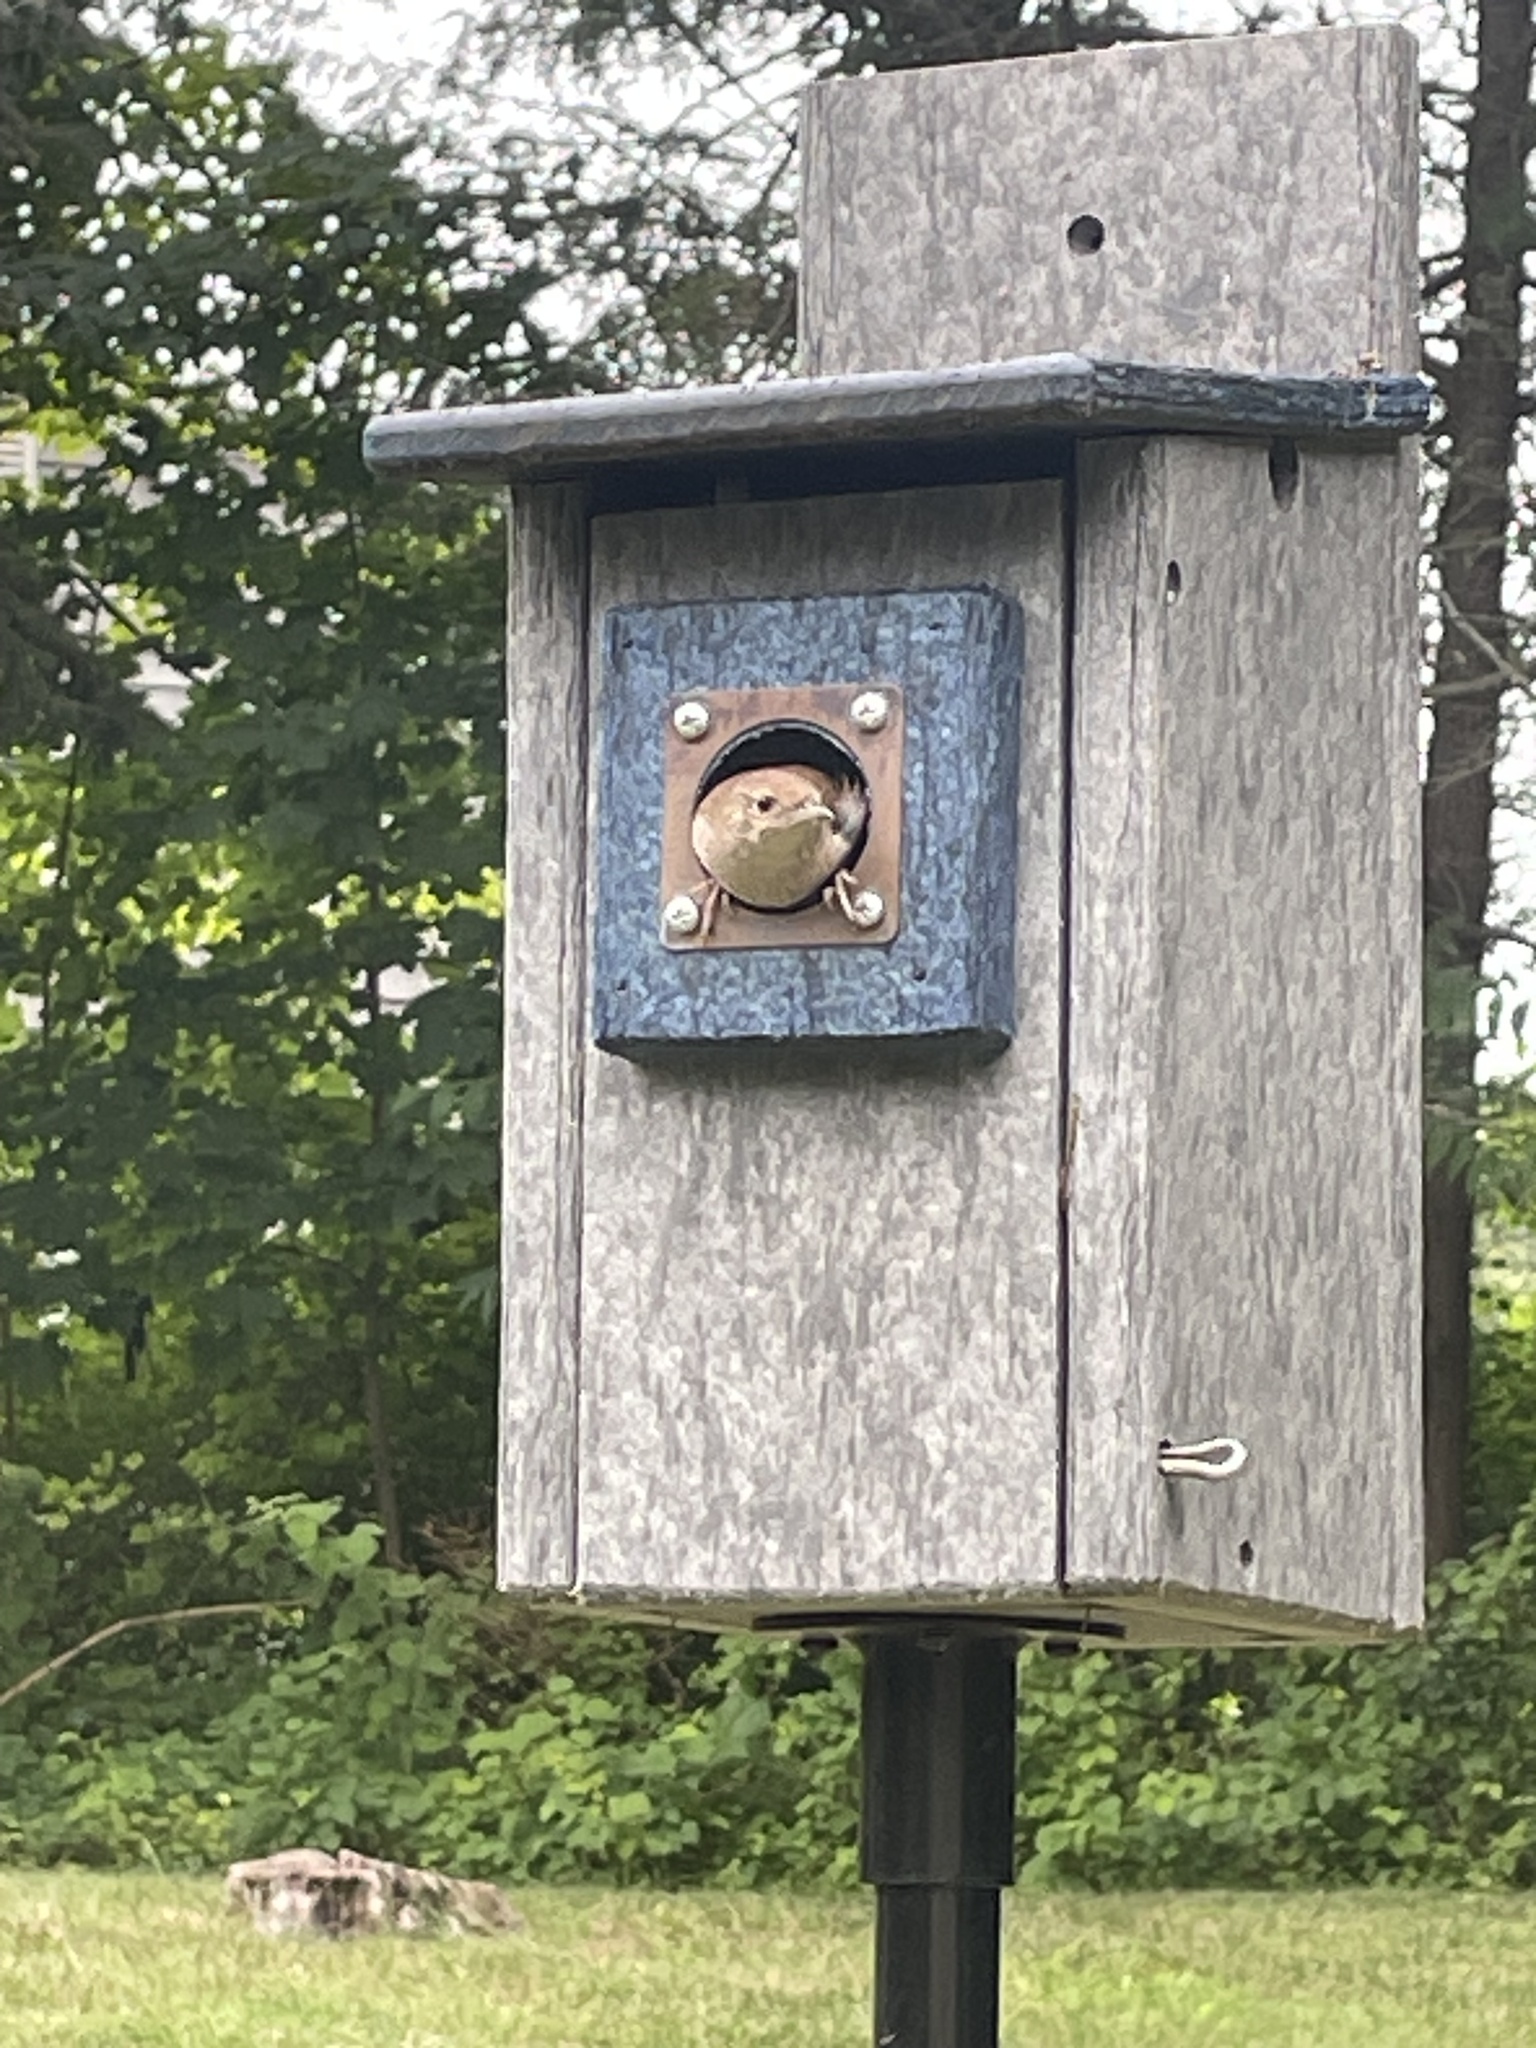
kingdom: Animalia
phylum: Chordata
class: Aves
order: Passeriformes
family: Troglodytidae
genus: Troglodytes
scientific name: Troglodytes aedon
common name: House wren
